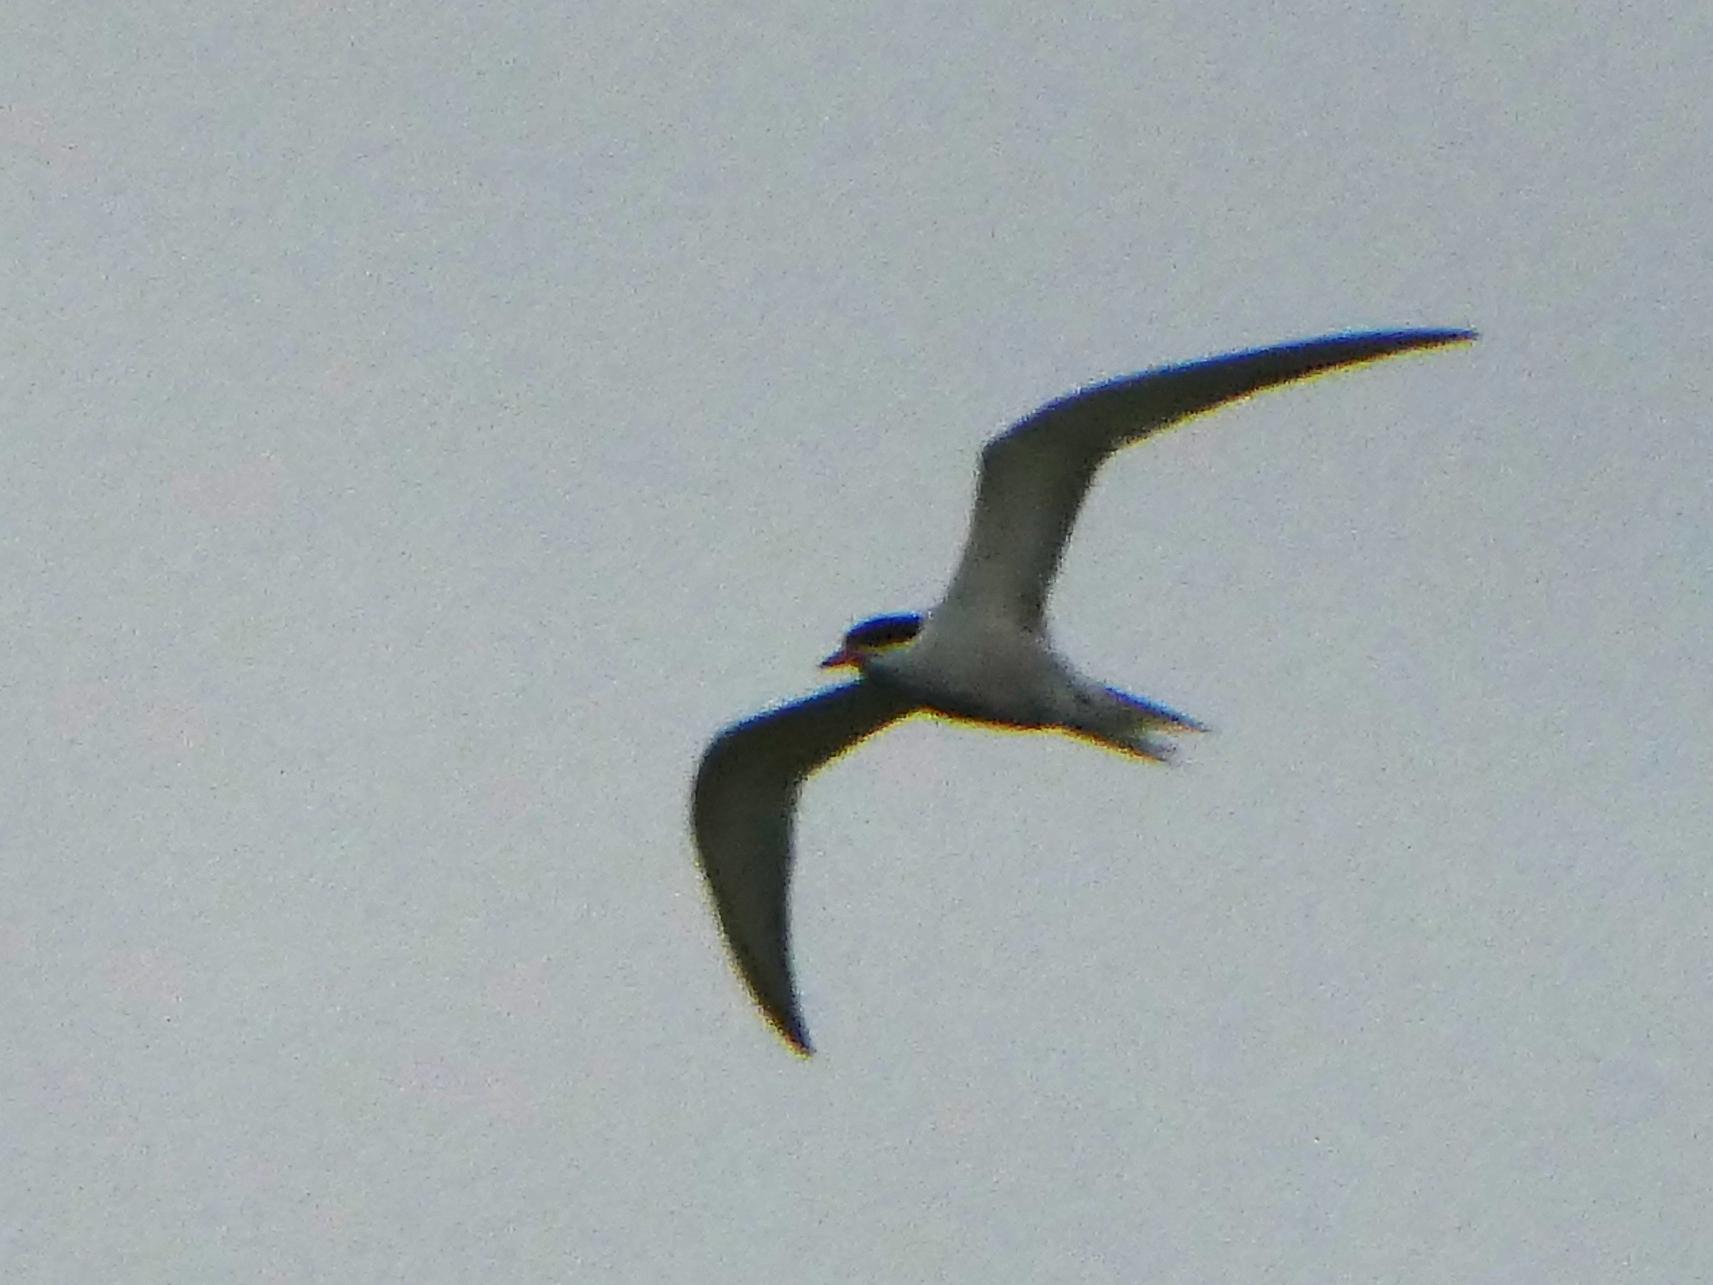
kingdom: Animalia
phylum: Chordata
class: Aves
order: Charadriiformes
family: Laridae
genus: Sterna
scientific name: Sterna hirundo
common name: Common tern
